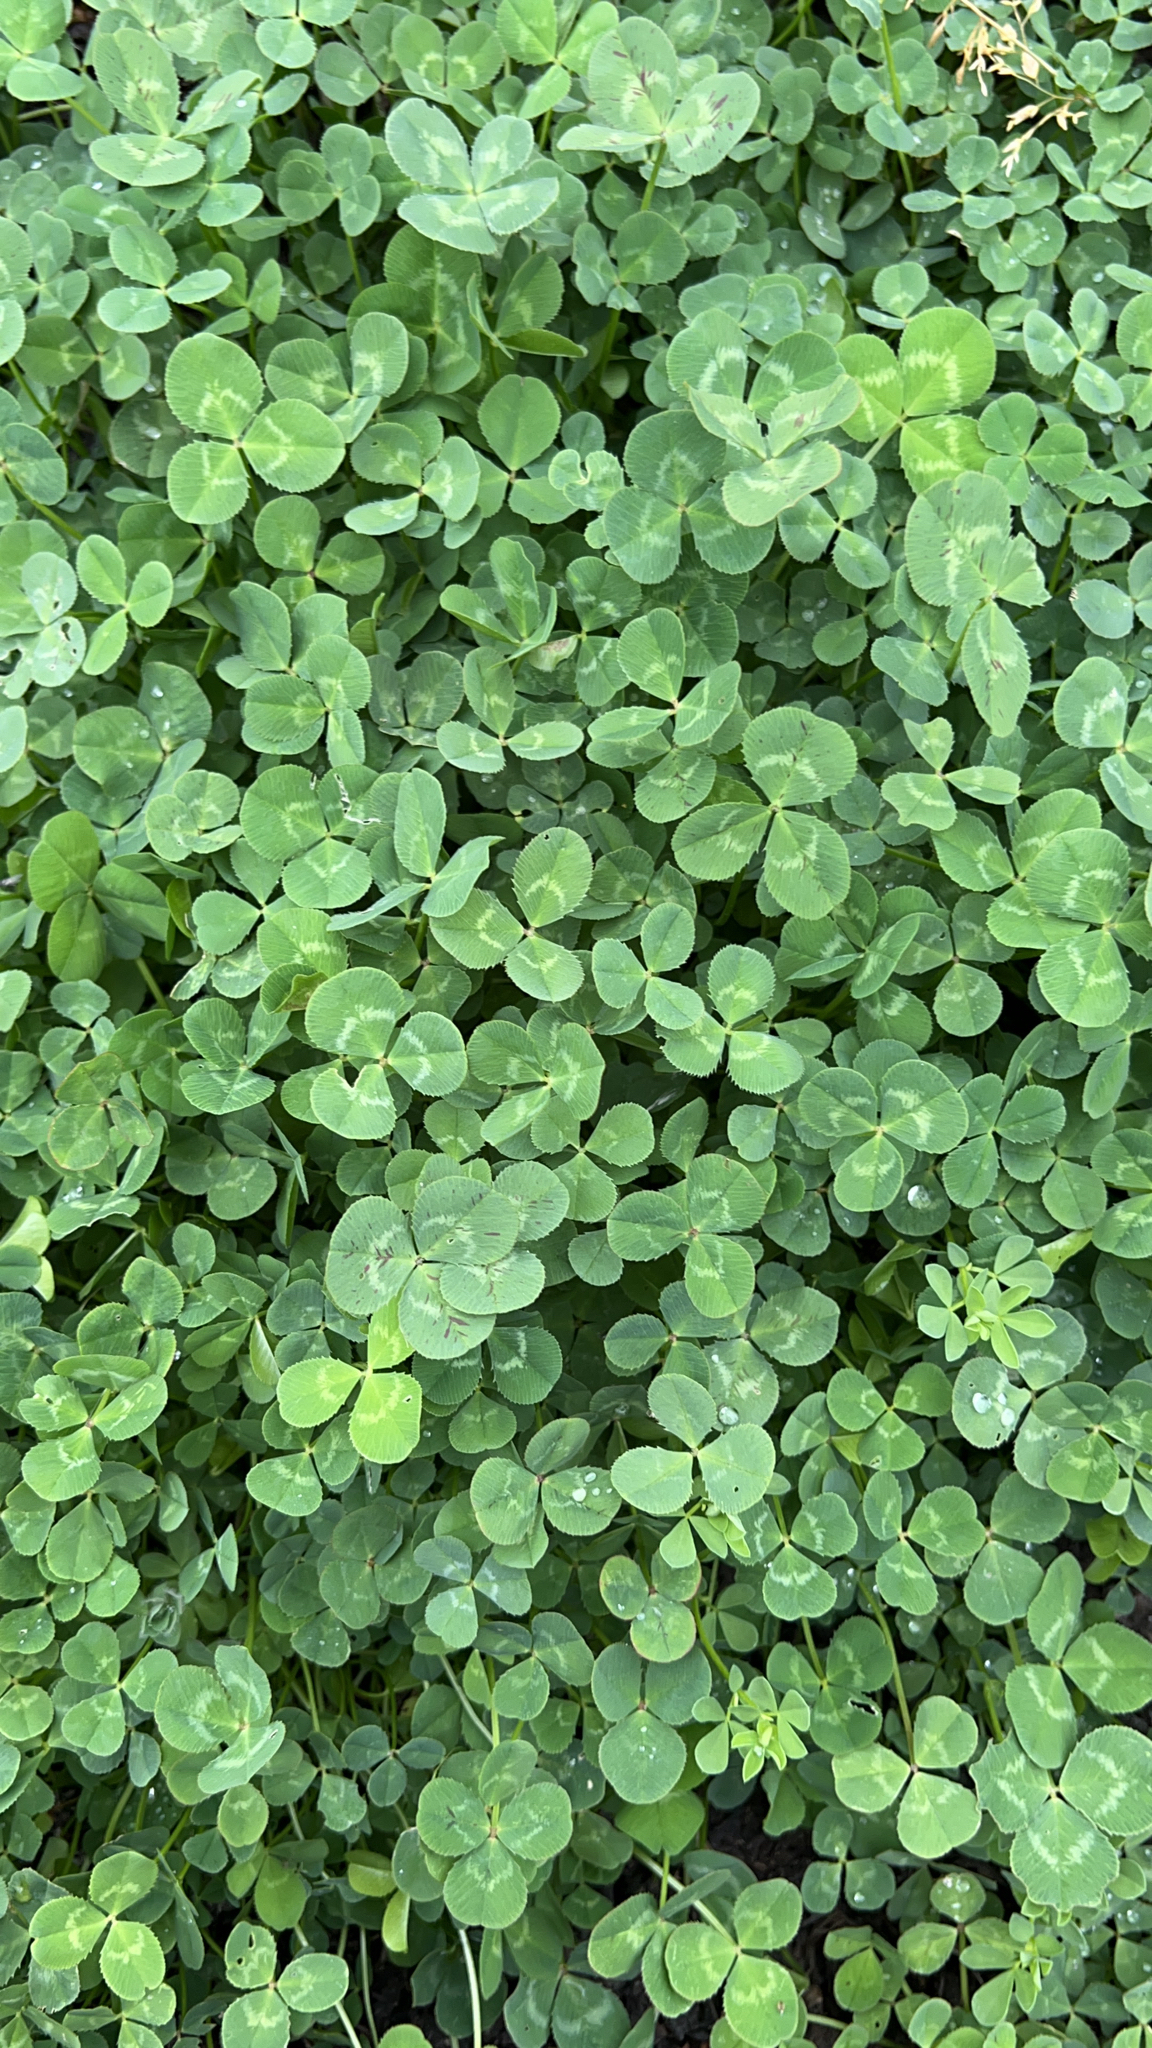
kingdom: Plantae
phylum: Tracheophyta
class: Magnoliopsida
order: Fabales
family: Fabaceae
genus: Trifolium
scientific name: Trifolium repens
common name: White clover
